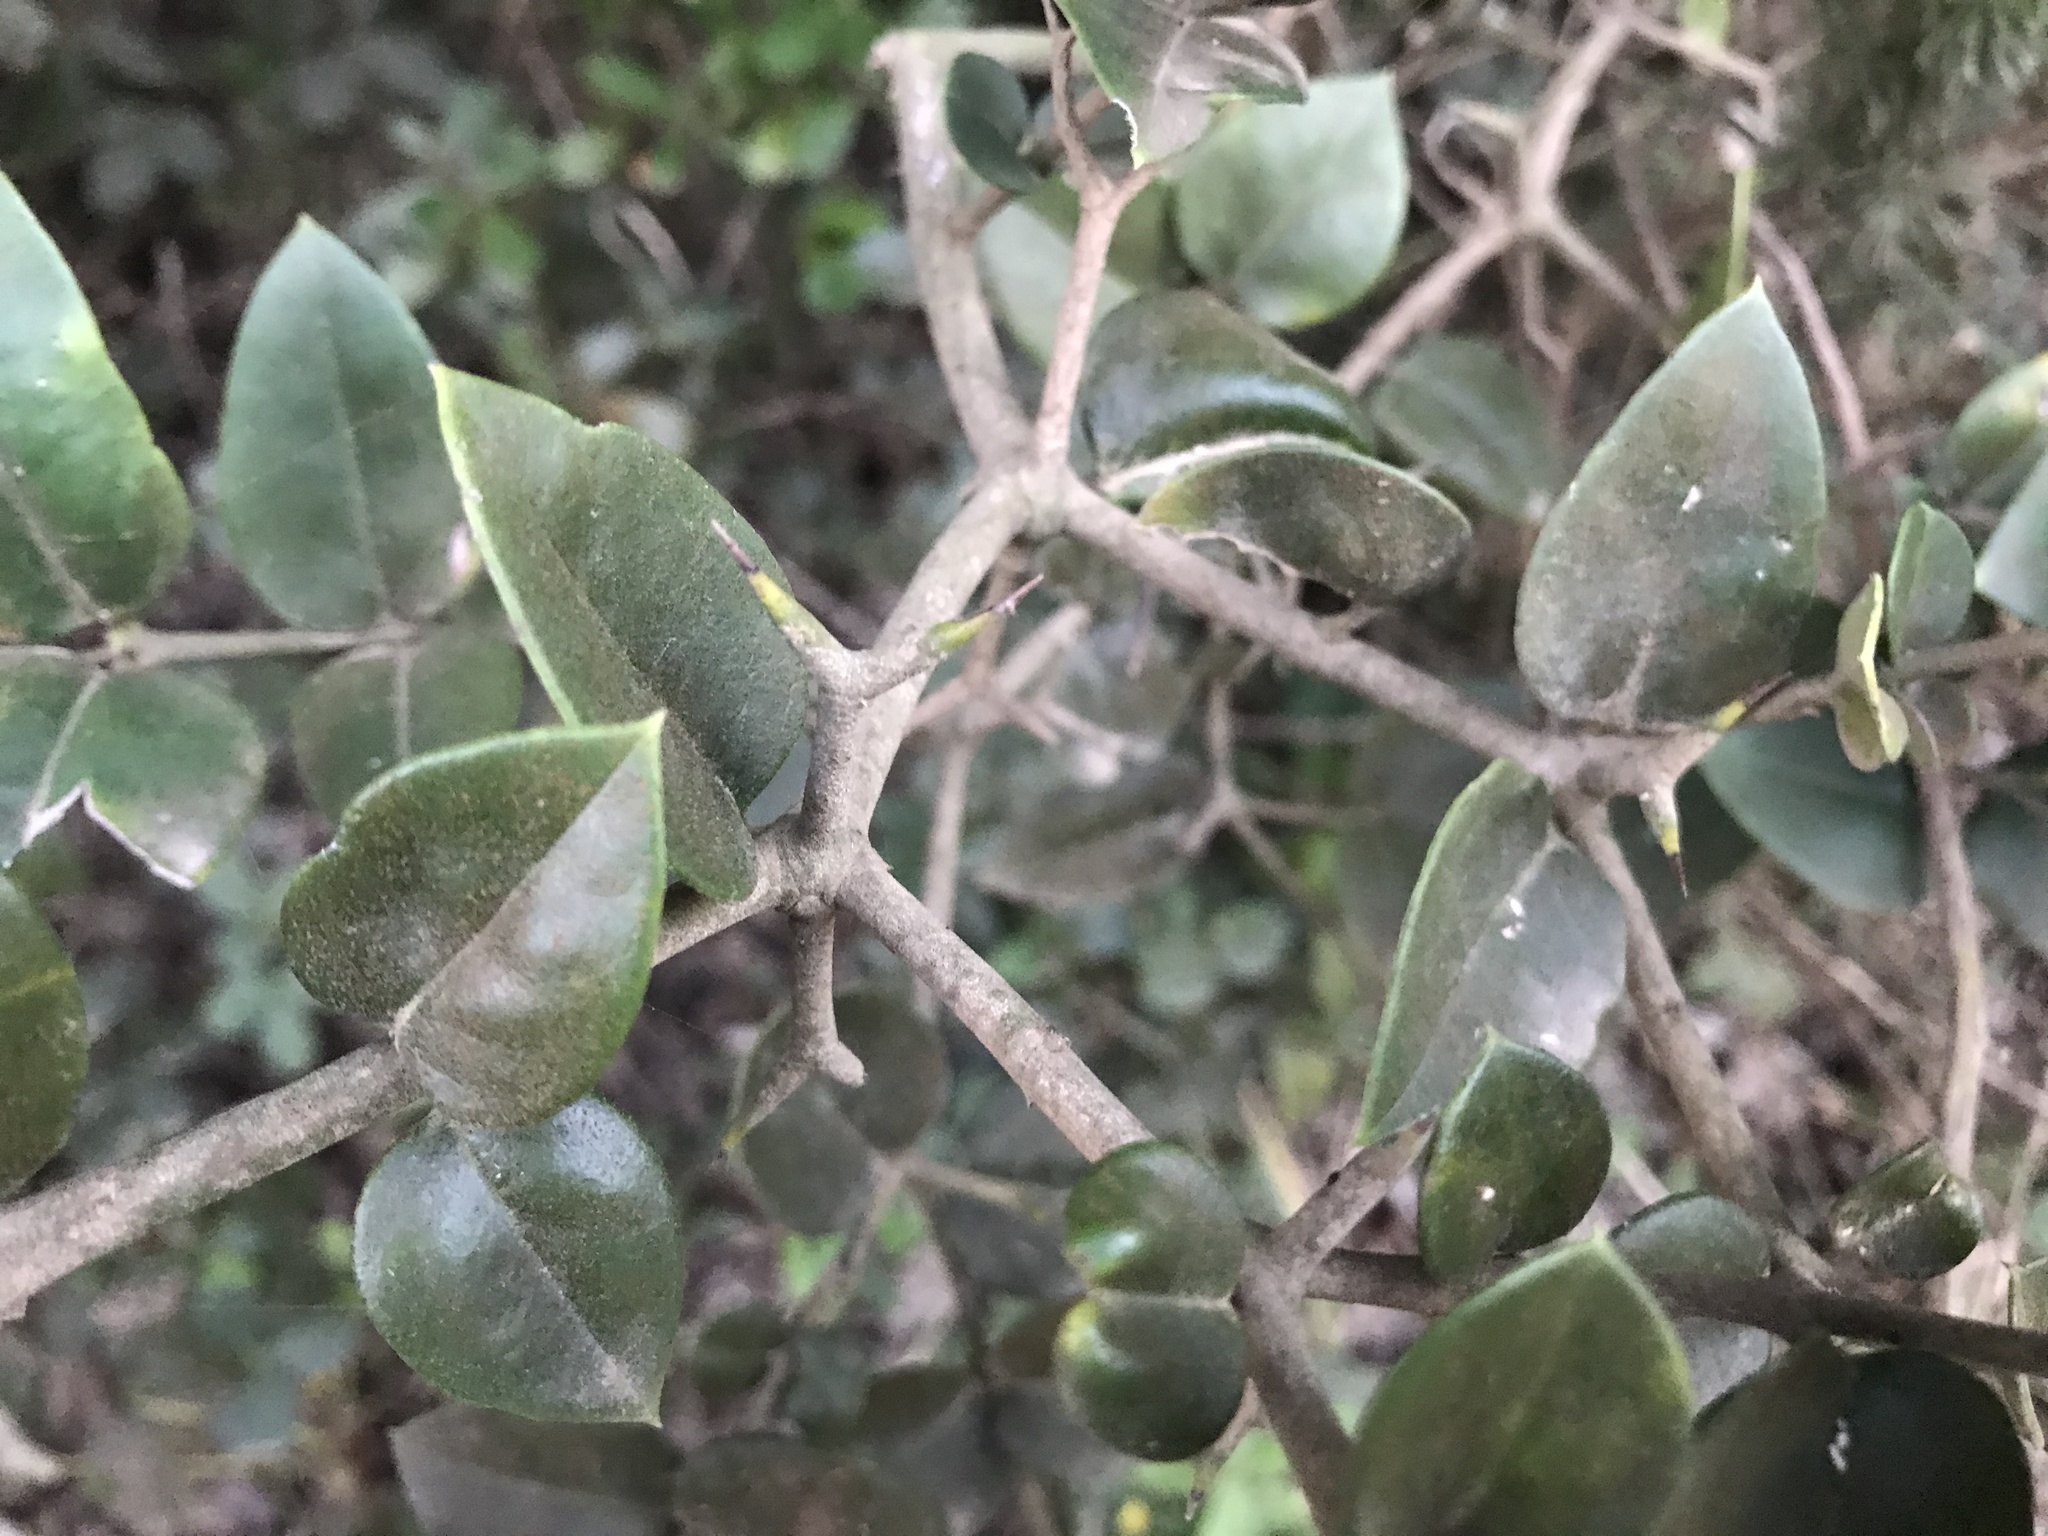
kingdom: Plantae
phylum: Tracheophyta
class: Magnoliopsida
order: Gentianales
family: Apocynaceae
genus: Carissa
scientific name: Carissa bispinosa
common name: Forest num-num
